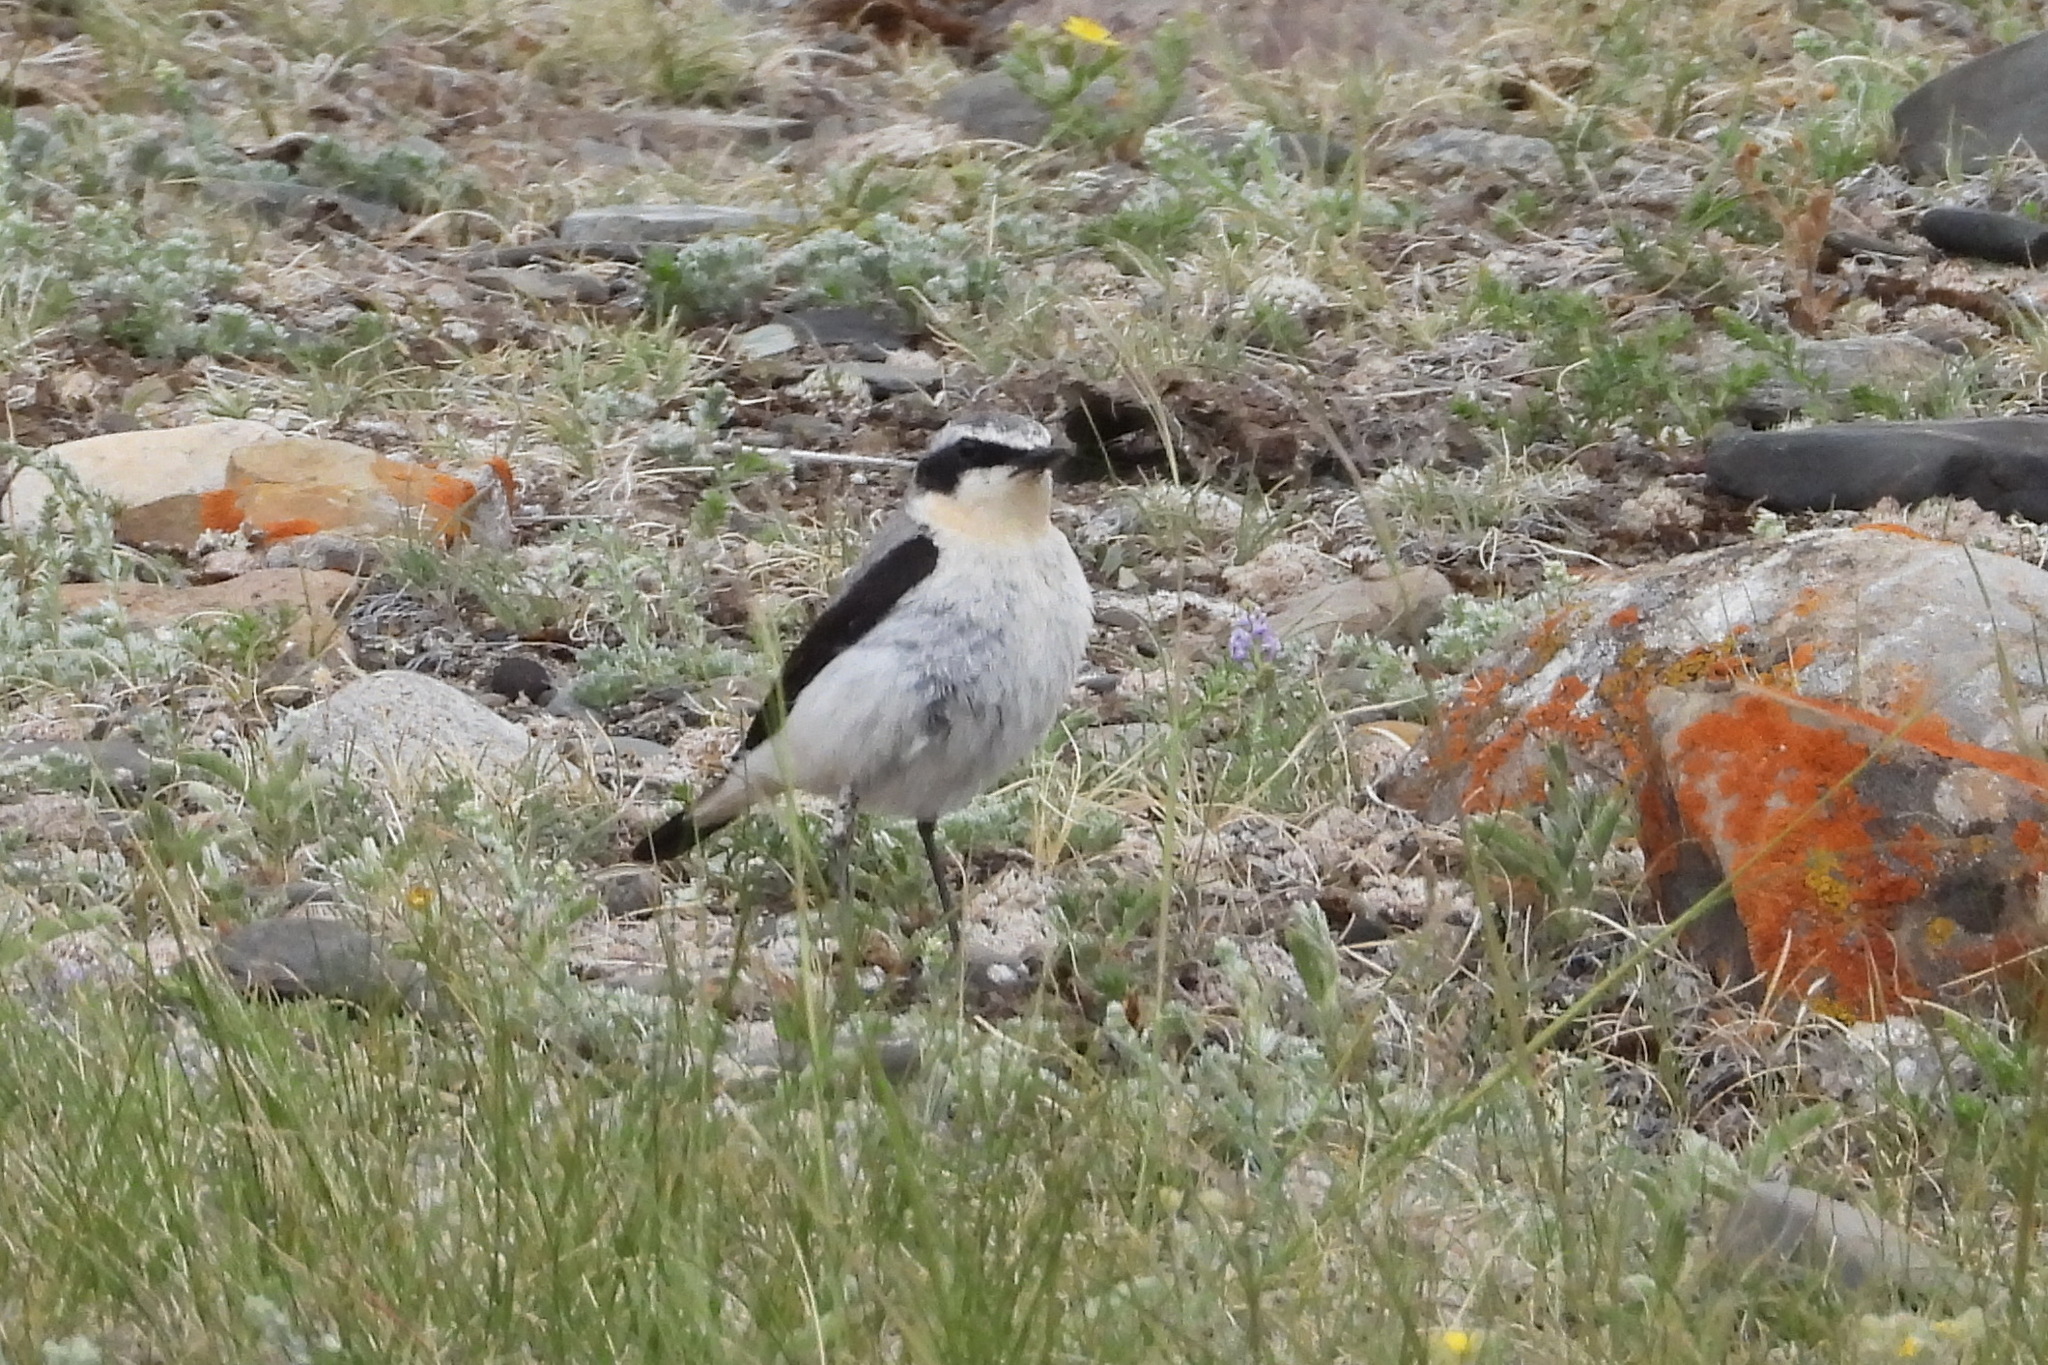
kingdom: Animalia
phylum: Chordata
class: Aves
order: Passeriformes
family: Muscicapidae
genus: Oenanthe
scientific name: Oenanthe oenanthe
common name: Northern wheatear
